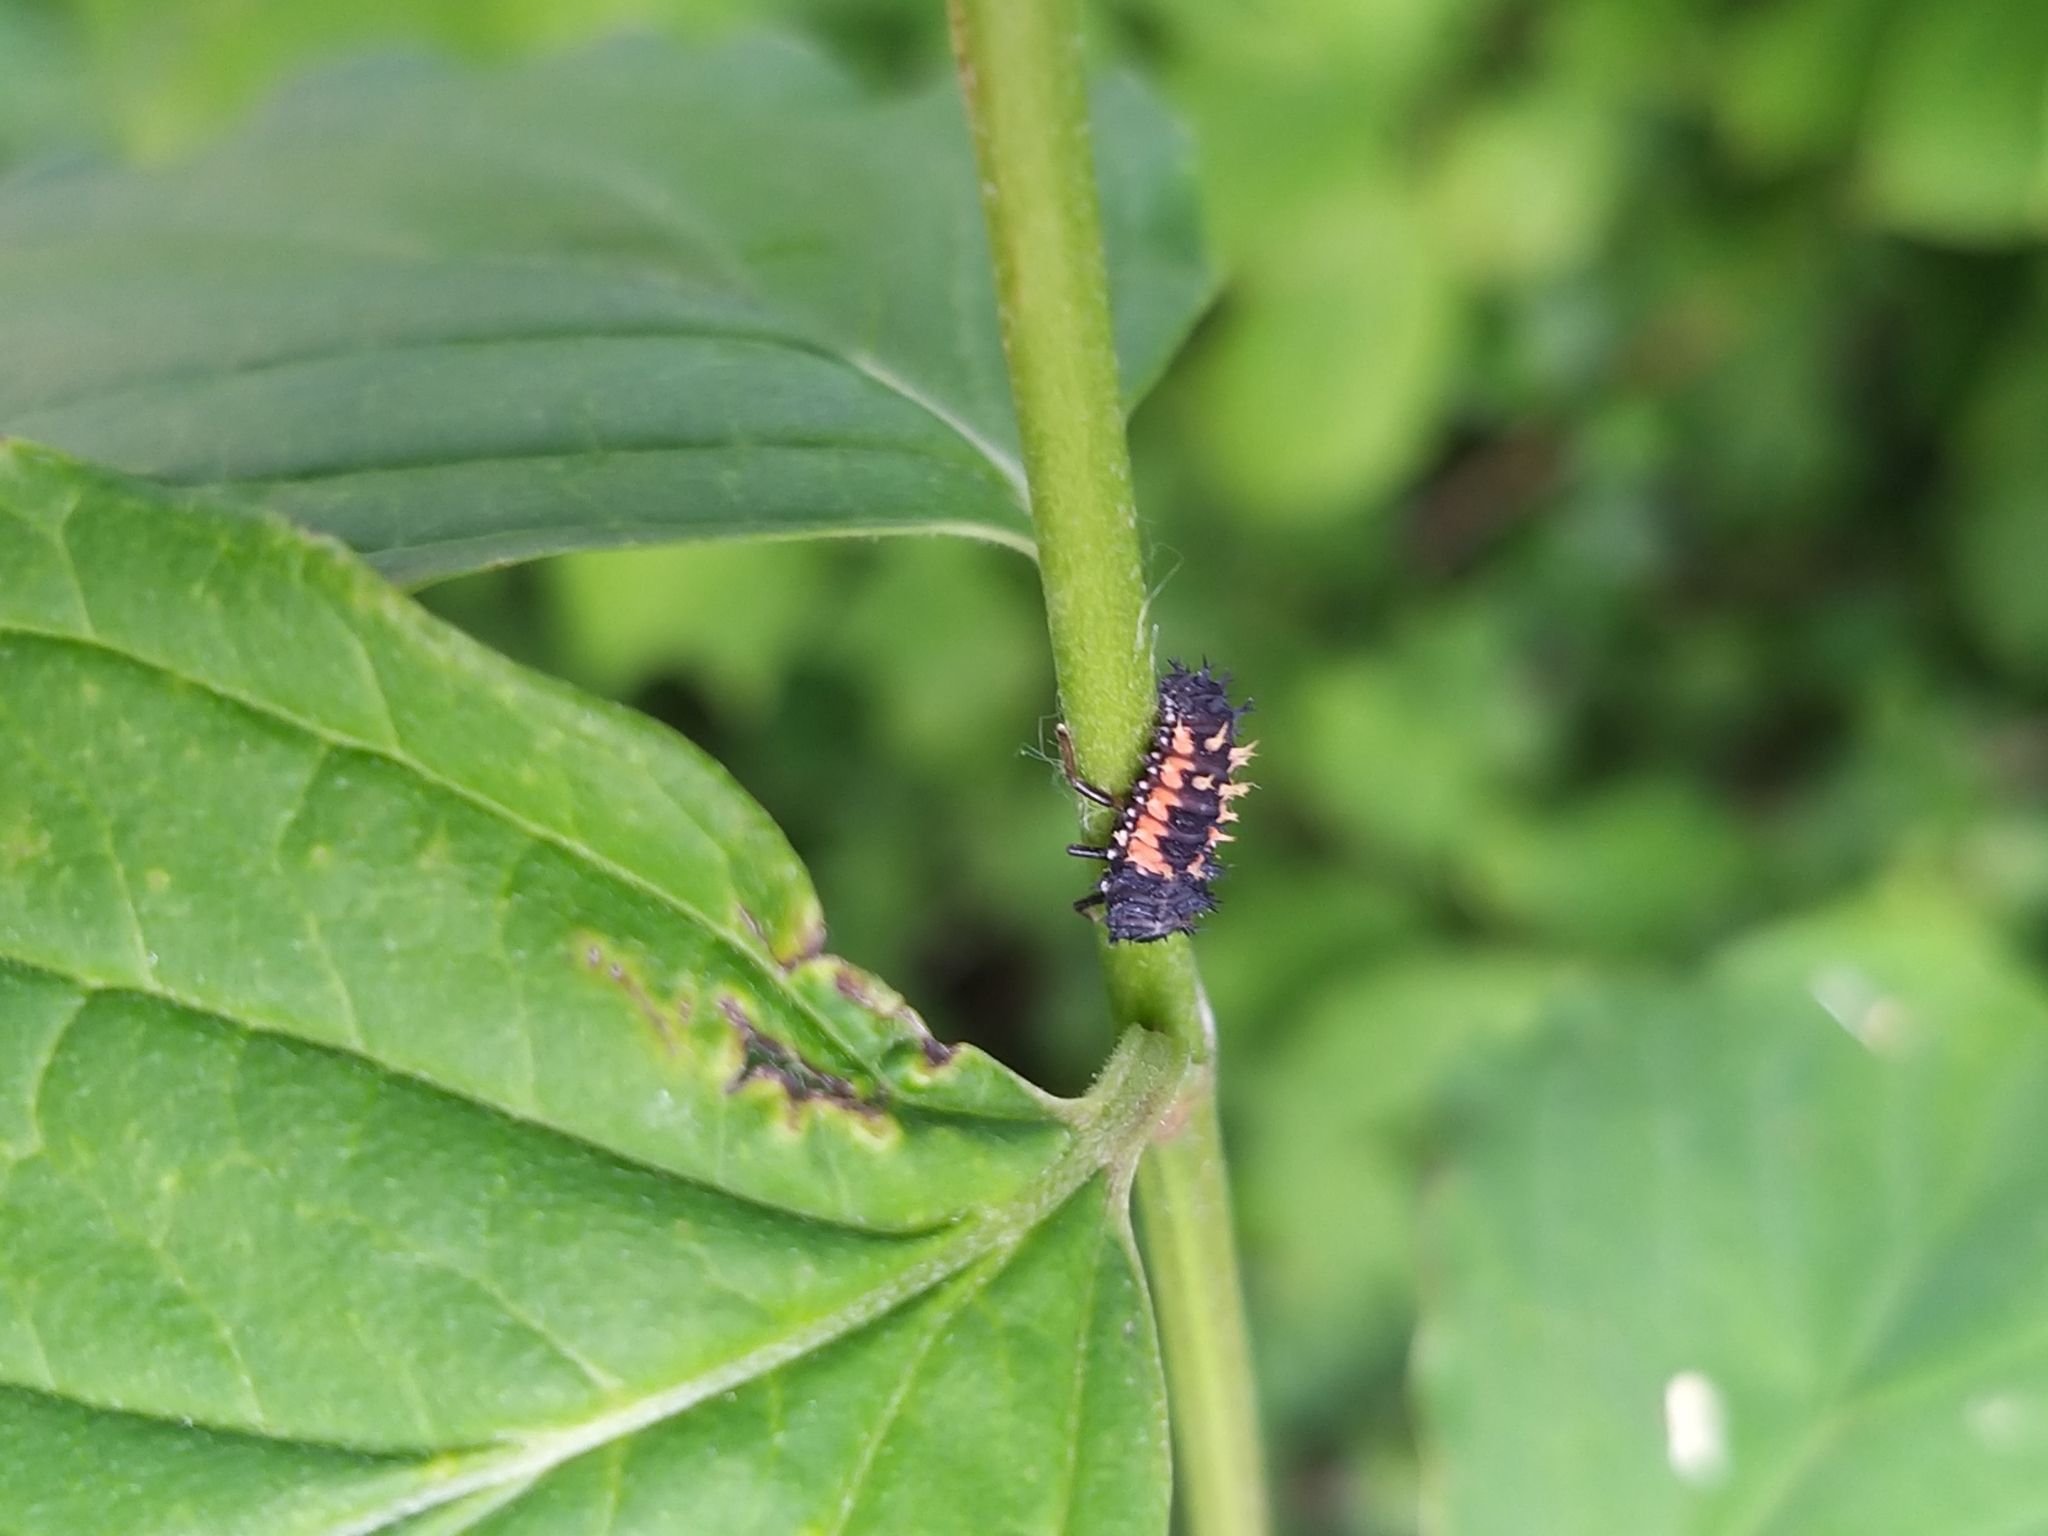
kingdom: Animalia
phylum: Arthropoda
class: Insecta
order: Coleoptera
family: Coccinellidae
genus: Harmonia
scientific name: Harmonia axyridis
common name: Harlequin ladybird
